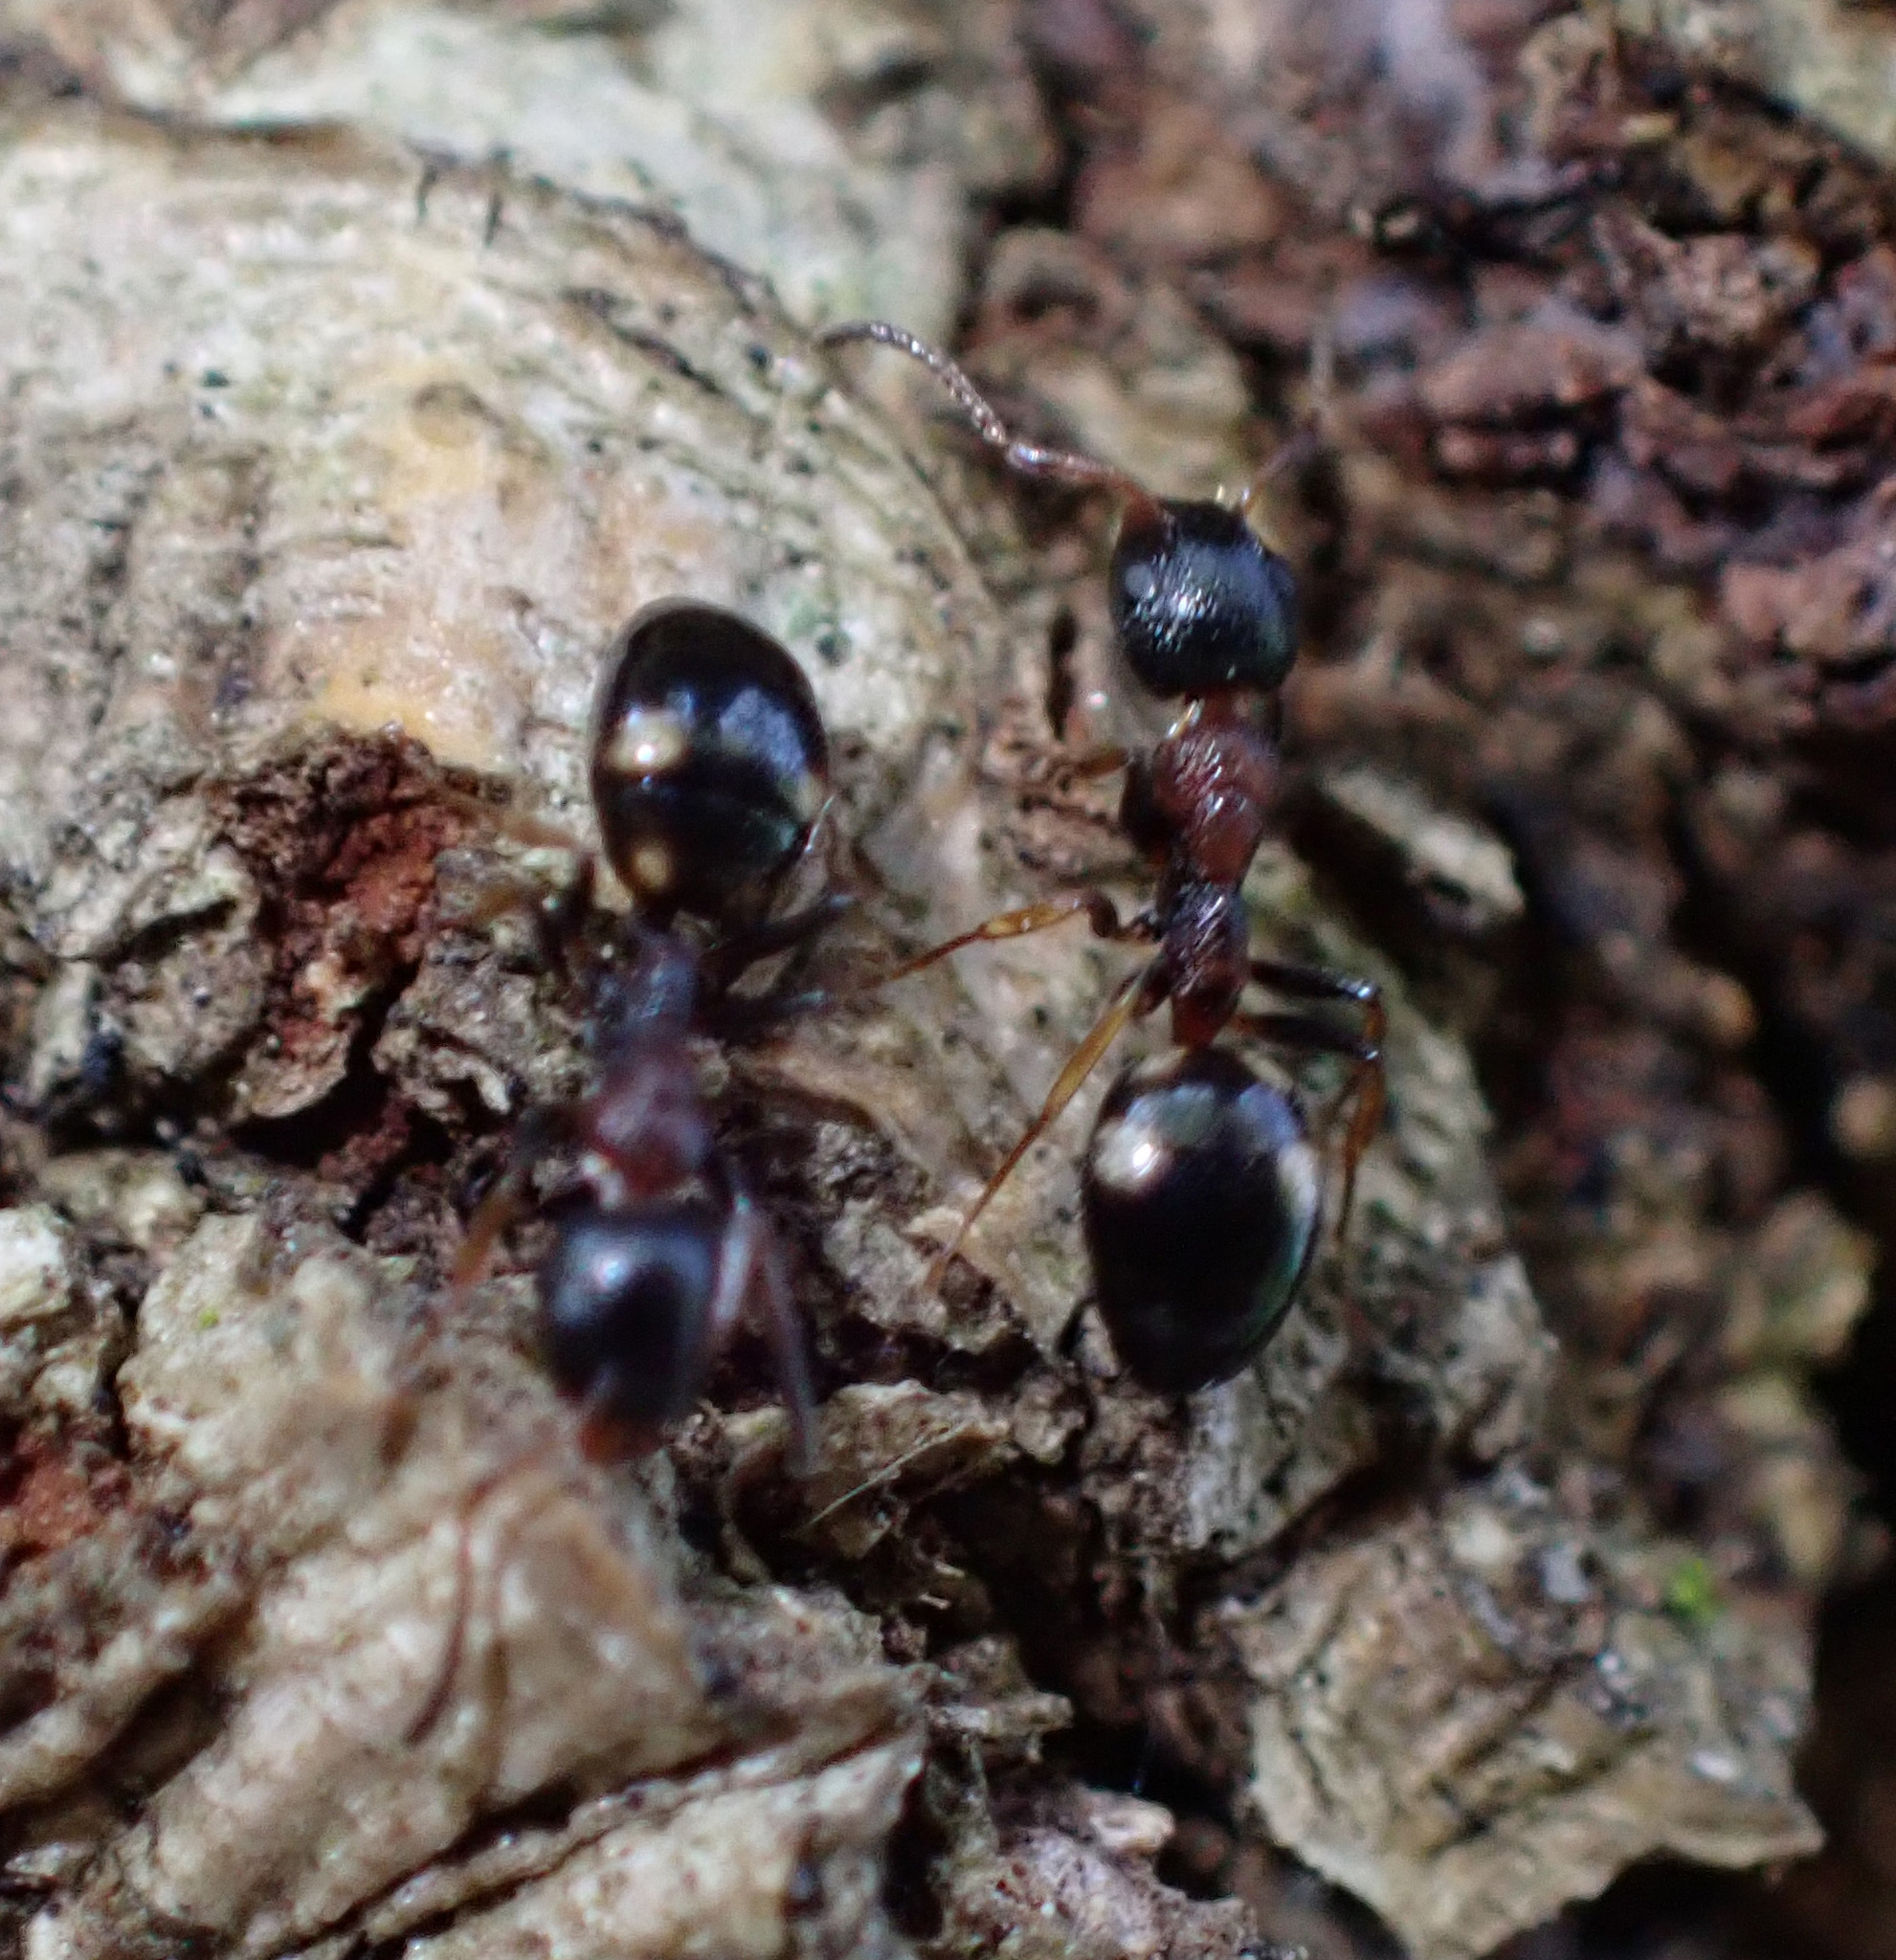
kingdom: Animalia
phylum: Arthropoda
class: Insecta
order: Hymenoptera
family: Formicidae
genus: Dolichoderus
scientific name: Dolichoderus quadripunctatus
